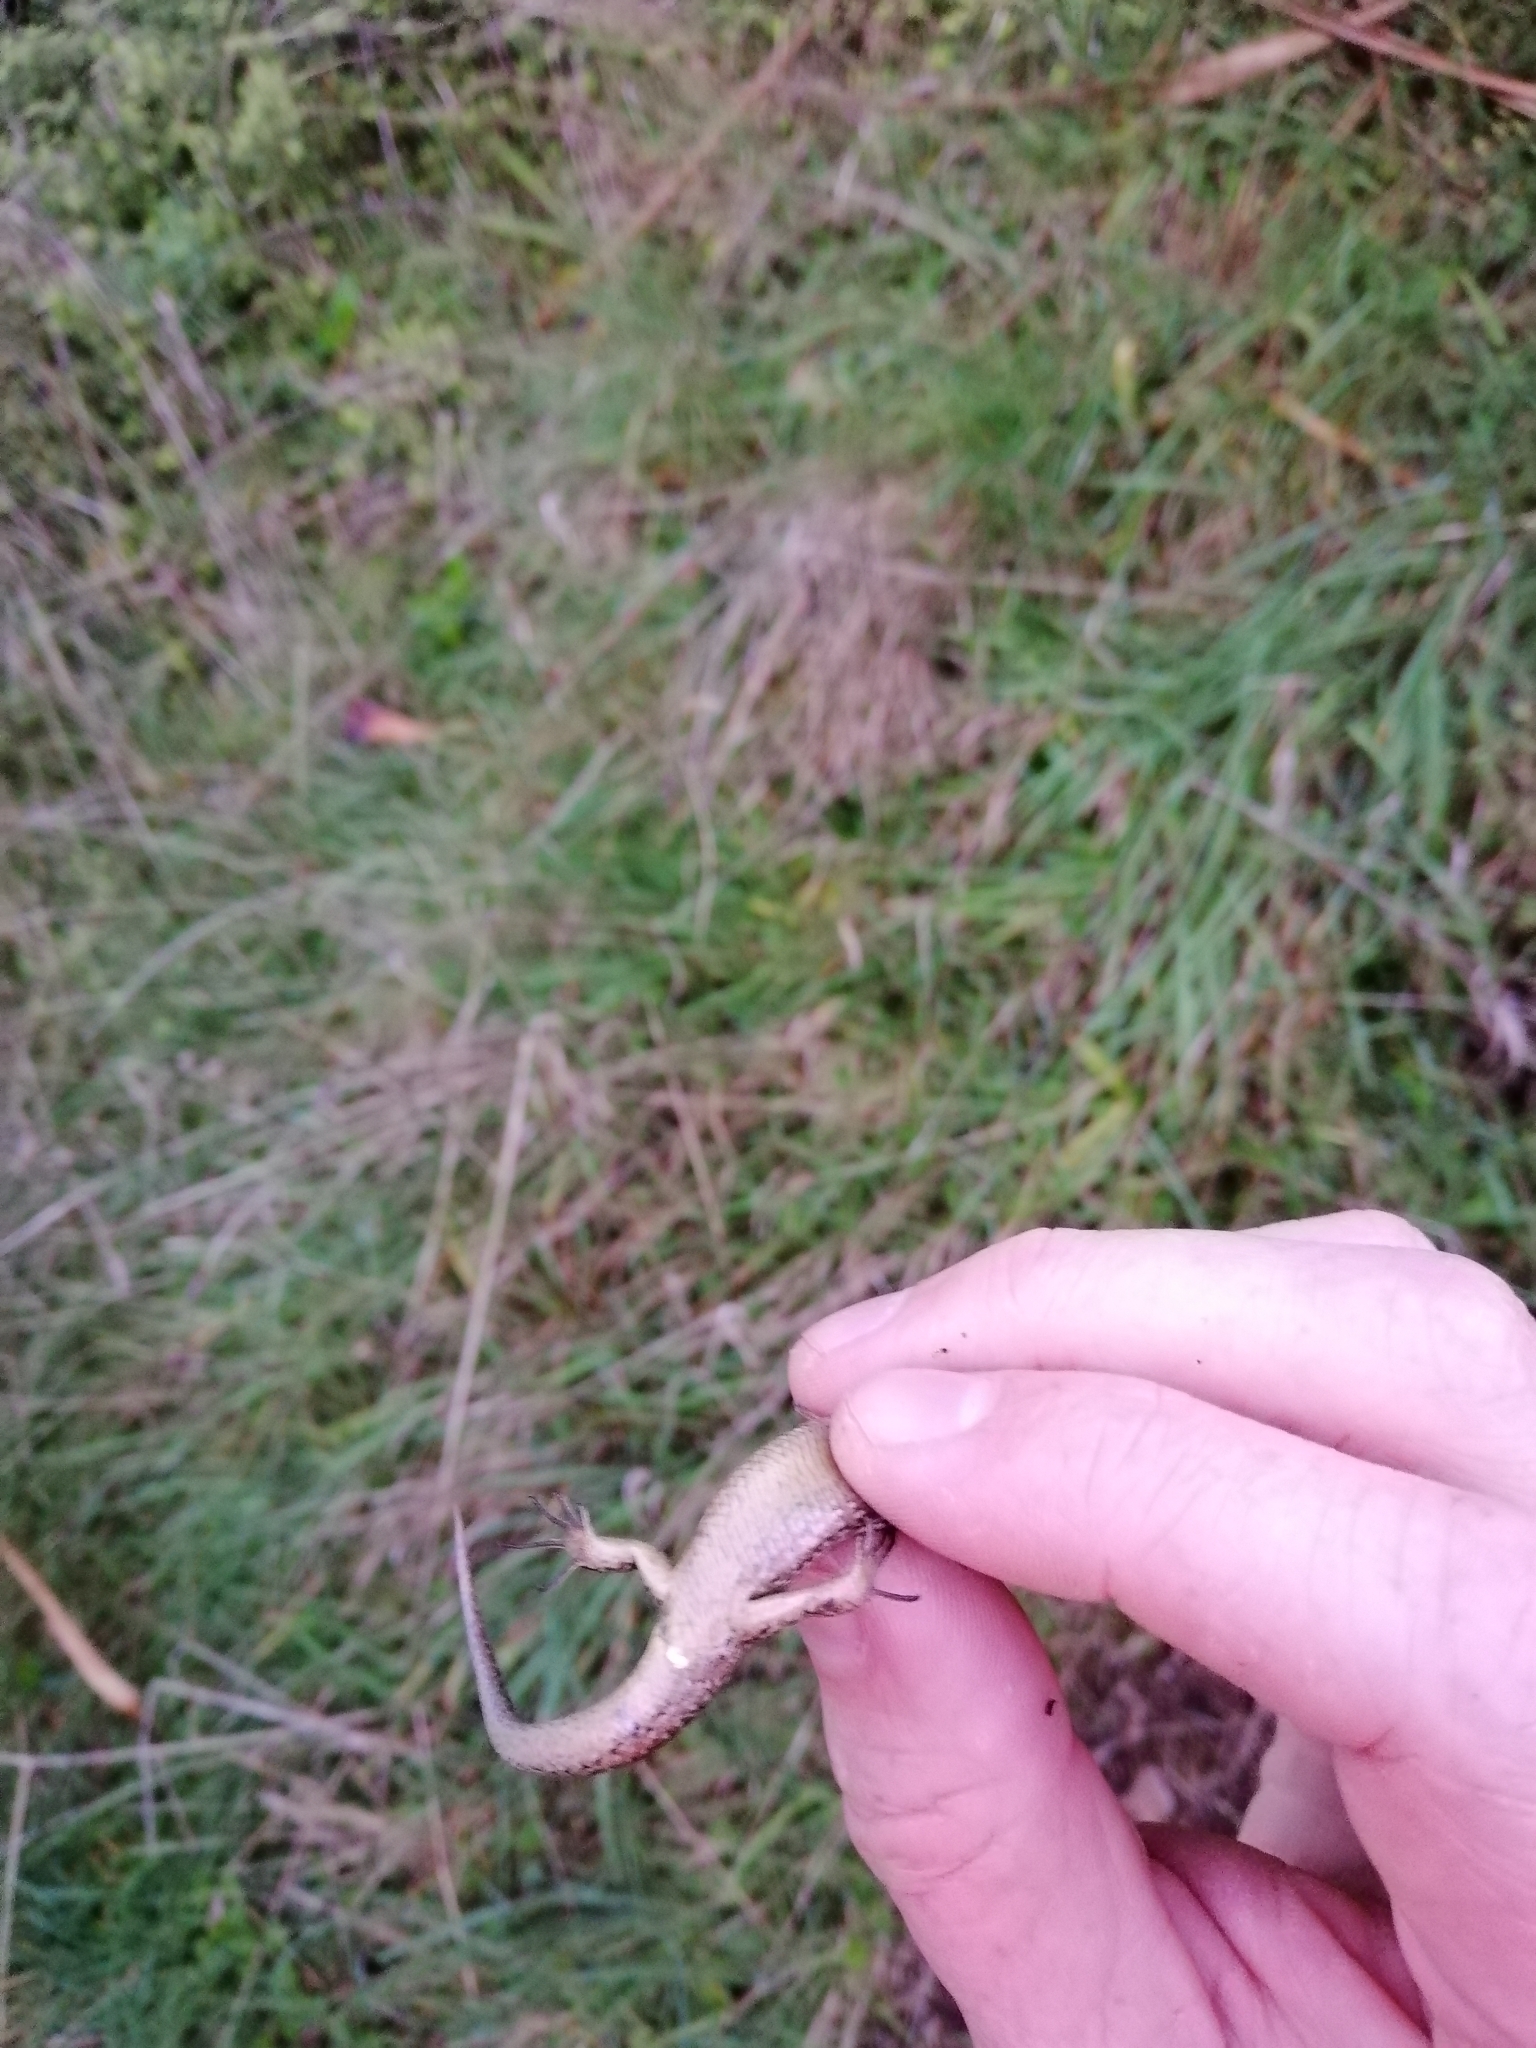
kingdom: Animalia
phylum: Chordata
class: Squamata
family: Scincidae
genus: Oligosoma
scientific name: Oligosoma polychroma
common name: Common new zealand skink
